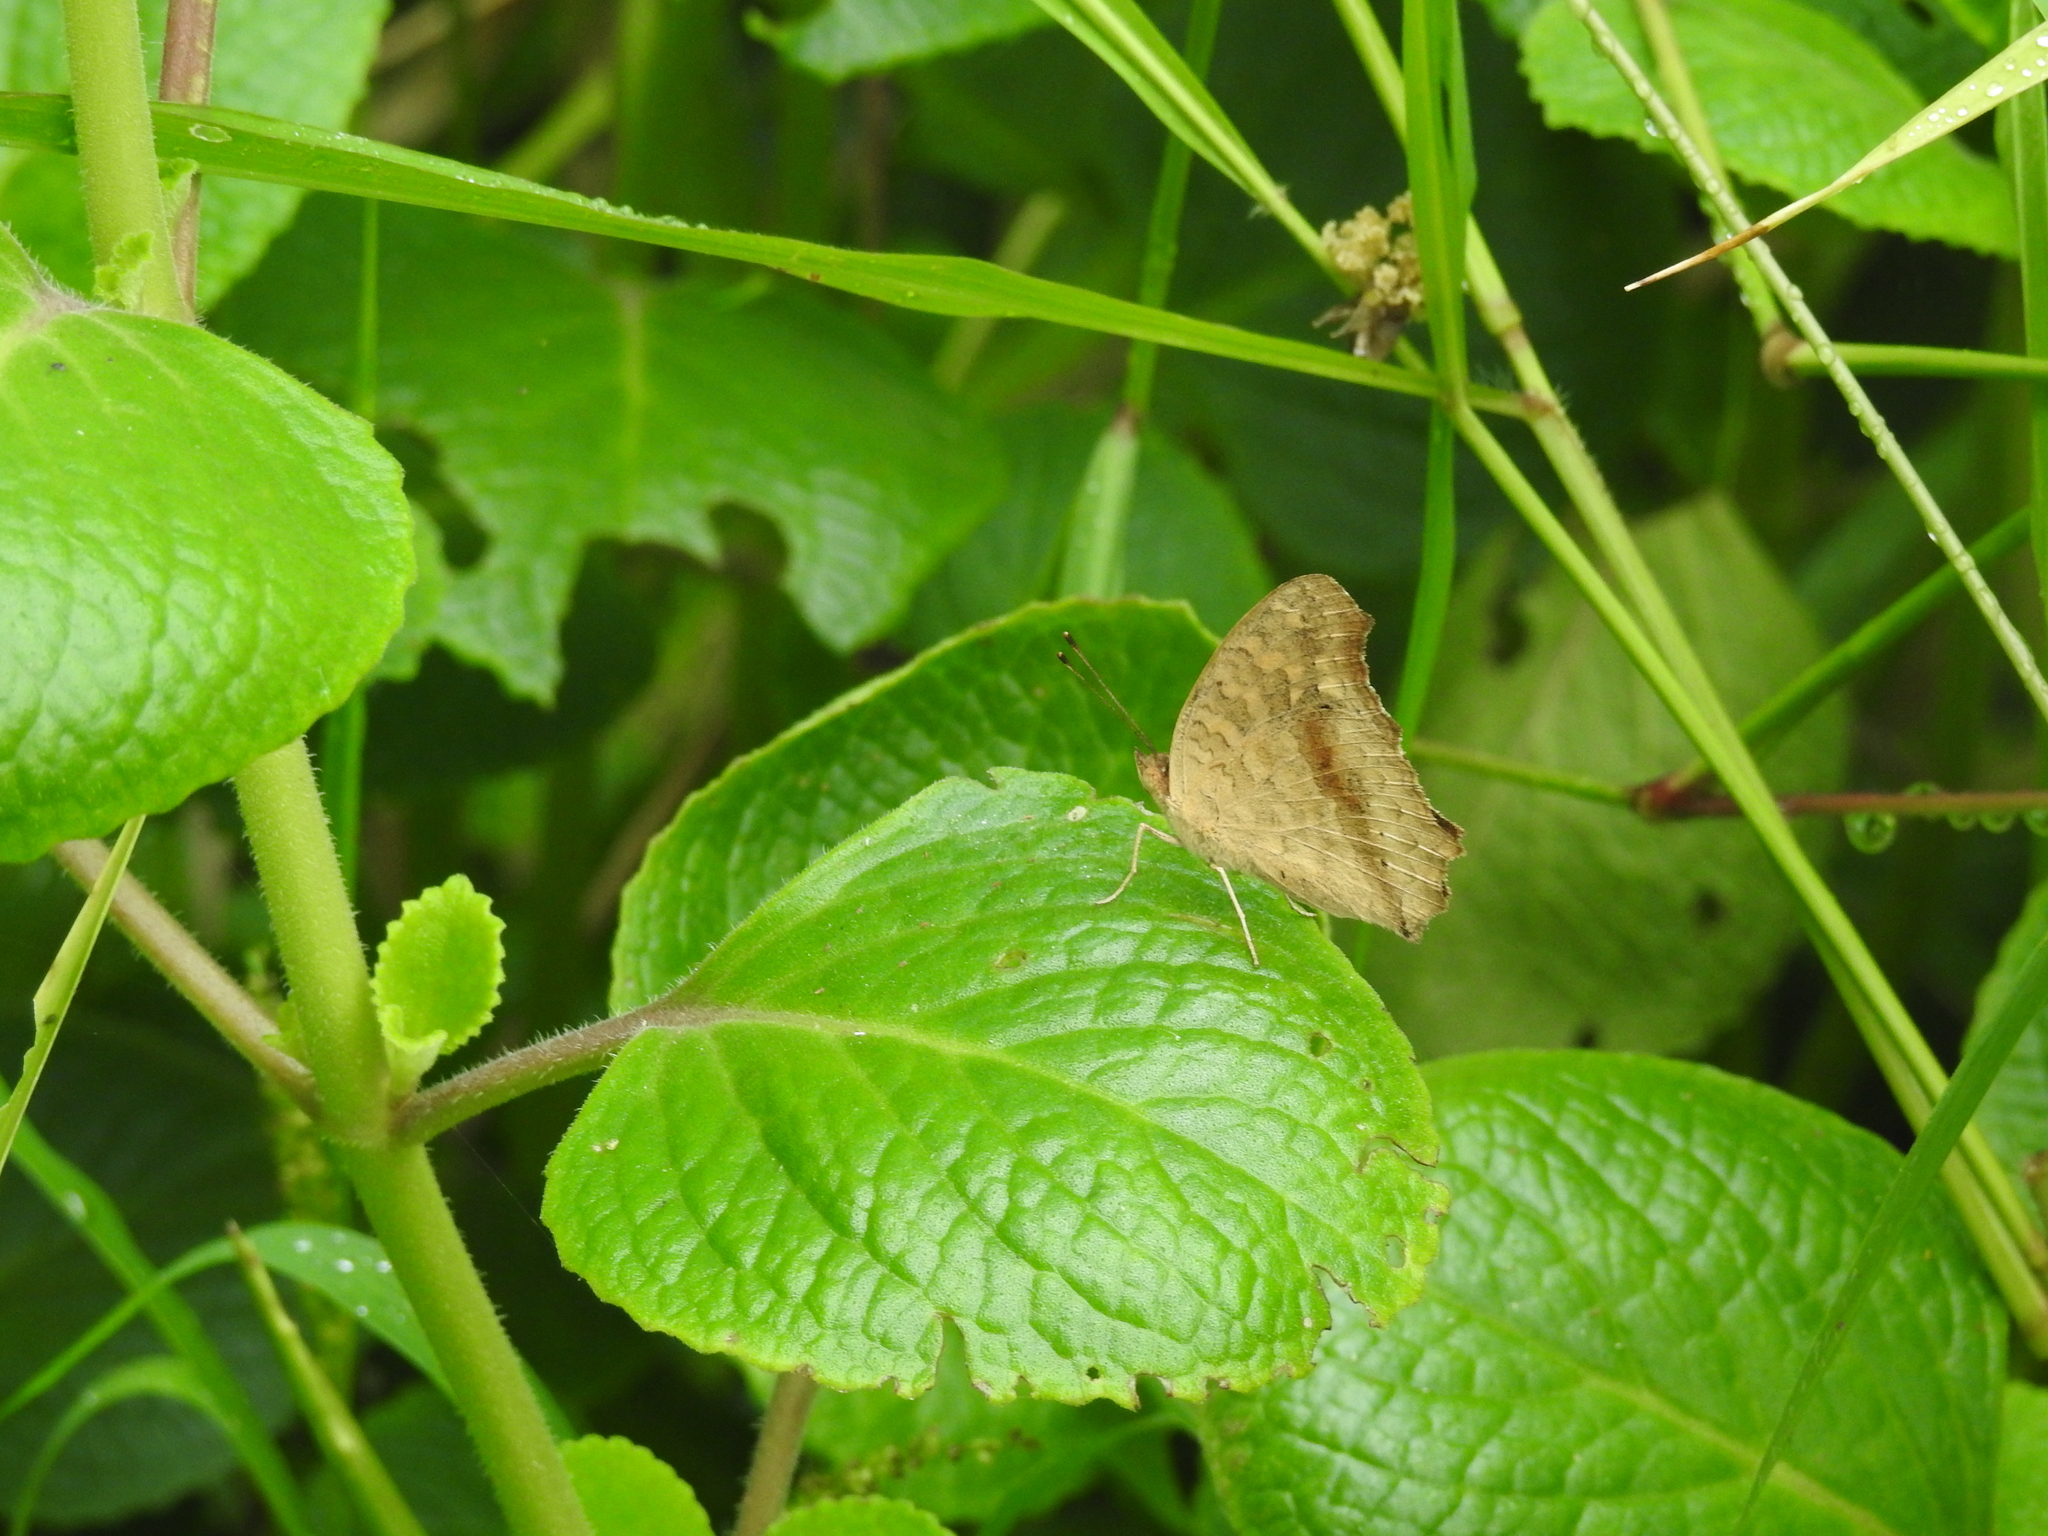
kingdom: Animalia
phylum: Arthropoda
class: Insecta
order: Lepidoptera
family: Nymphalidae
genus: Junonia
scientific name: Junonia lemonias
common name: Lemon pansy
